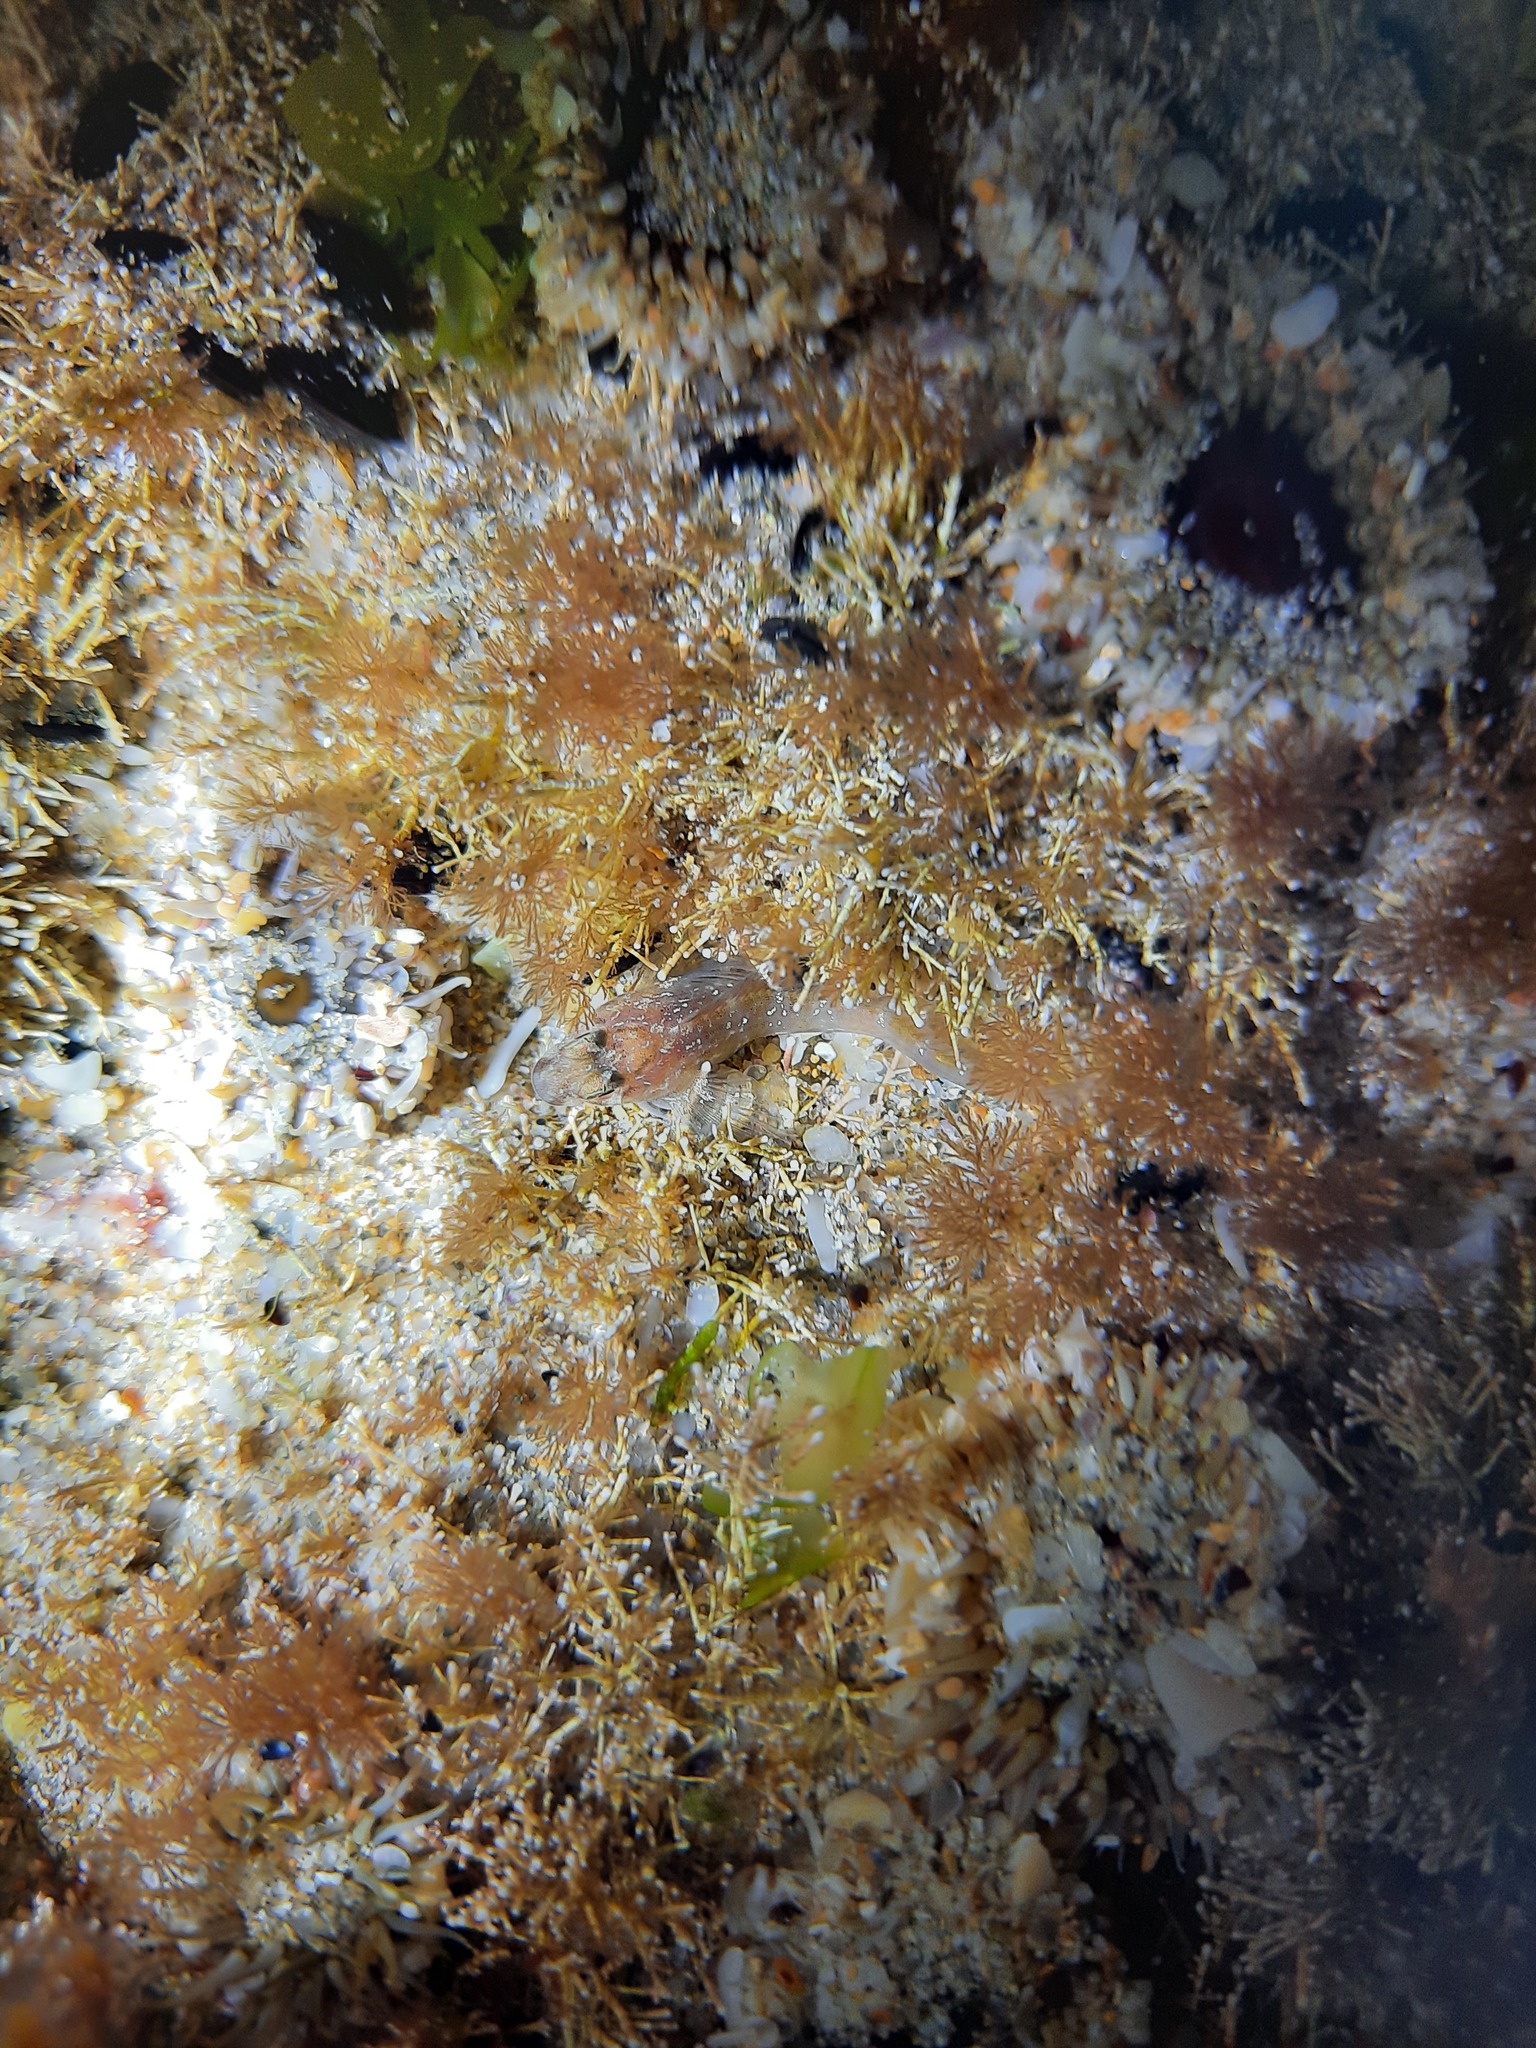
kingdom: Animalia
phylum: Chordata
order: Perciformes
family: Blenniidae
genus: Parablennius
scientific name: Parablennius tasmanianus
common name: Tasmanian blenny
